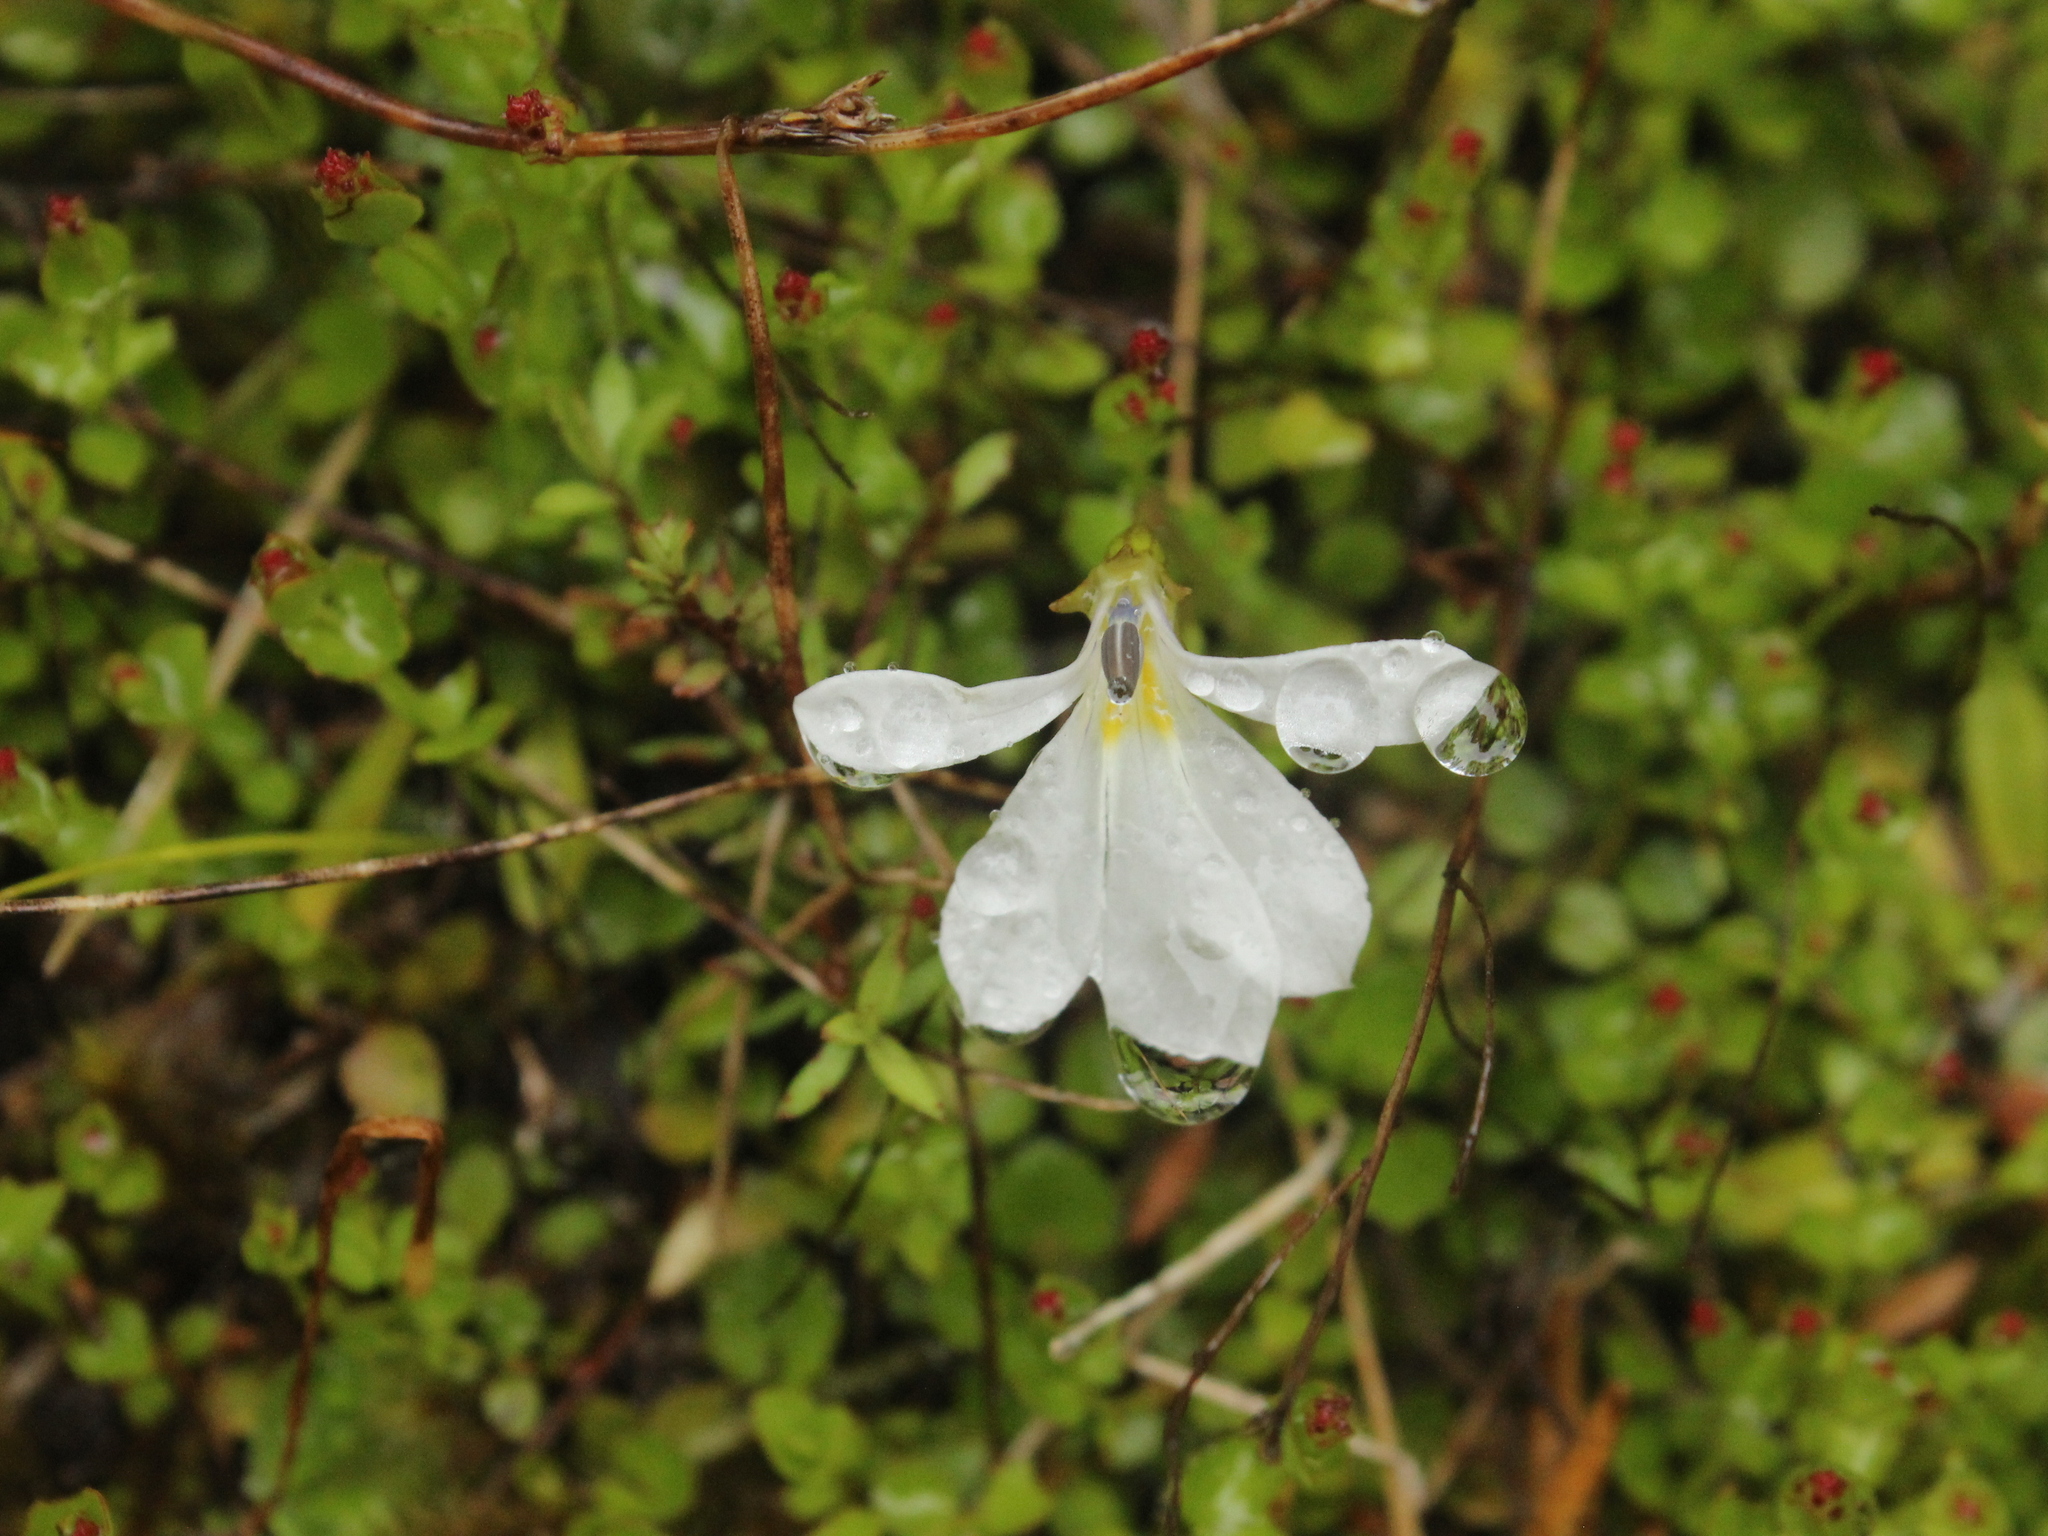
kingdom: Plantae
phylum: Tracheophyta
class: Magnoliopsida
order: Asterales
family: Campanulaceae
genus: Lobelia
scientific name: Lobelia angulata
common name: Lawn lobelia
